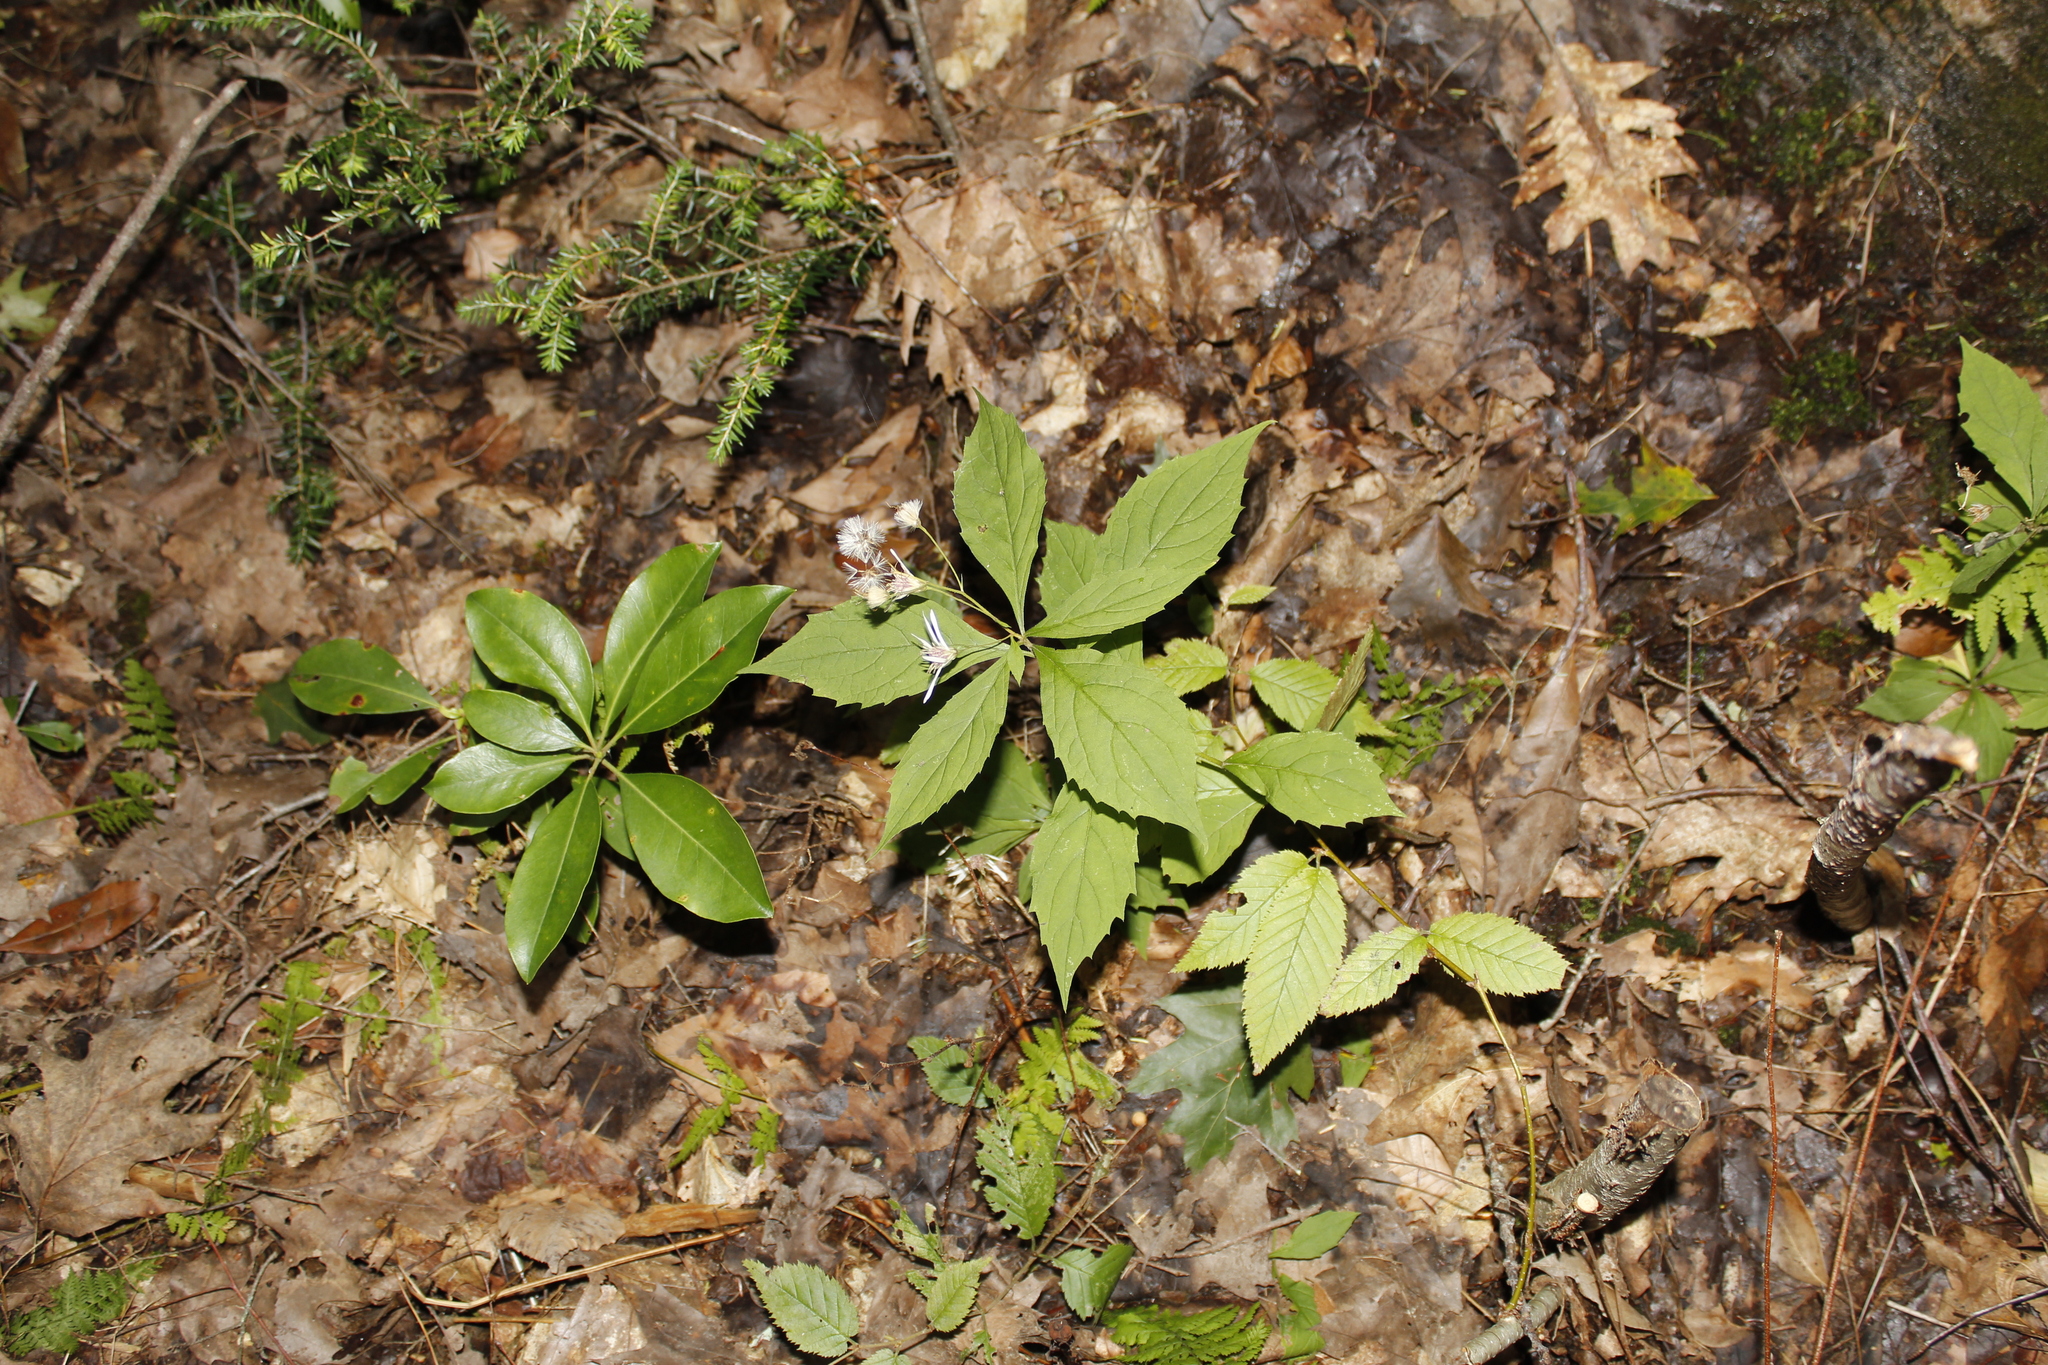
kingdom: Plantae
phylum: Tracheophyta
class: Magnoliopsida
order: Asterales
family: Asteraceae
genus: Oclemena
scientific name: Oclemena acuminata
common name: Mountain aster
